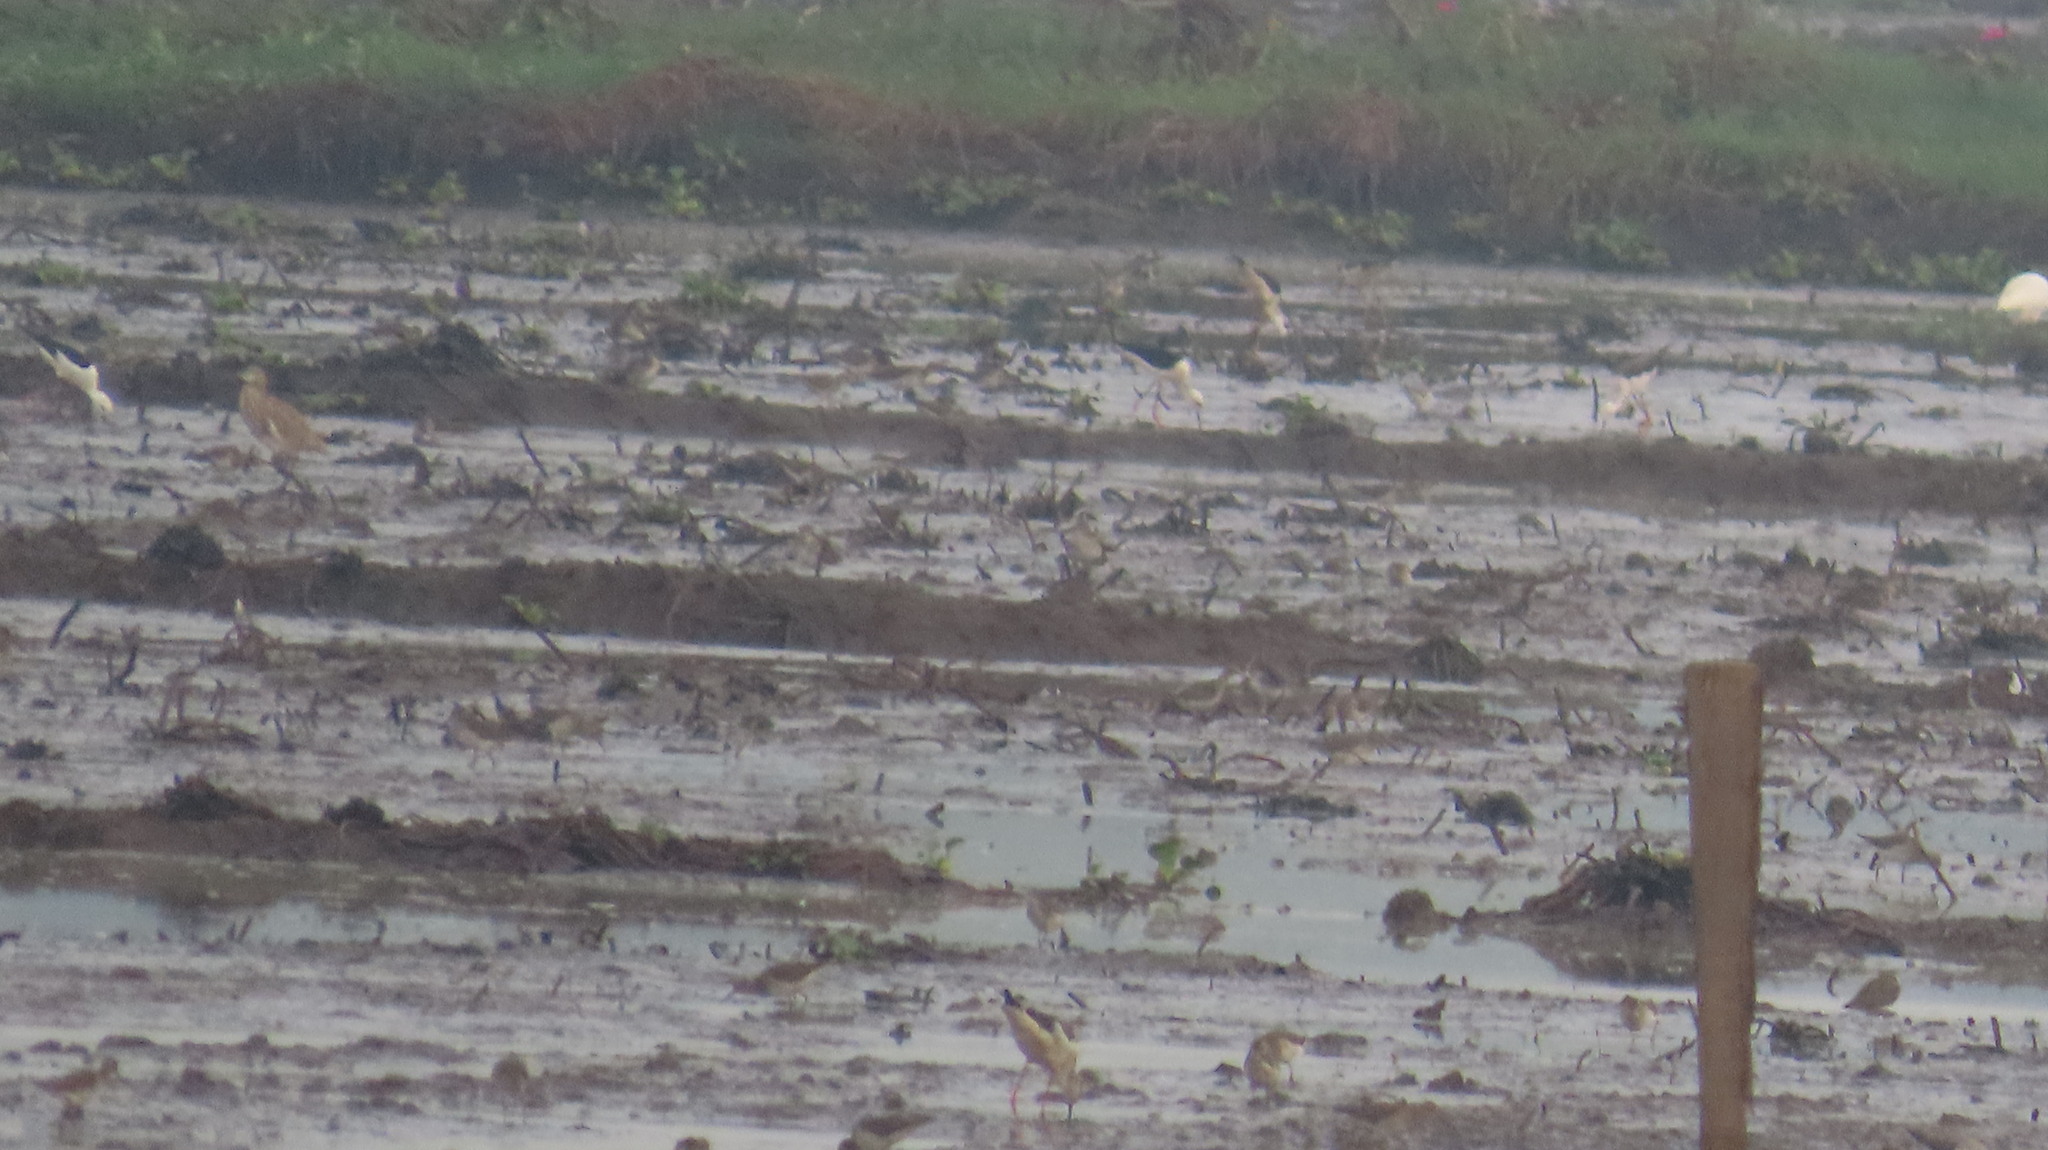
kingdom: Animalia
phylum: Chordata
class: Aves
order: Pelecaniformes
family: Ardeidae
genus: Ardeola
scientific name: Ardeola grayii
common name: Indian pond heron
